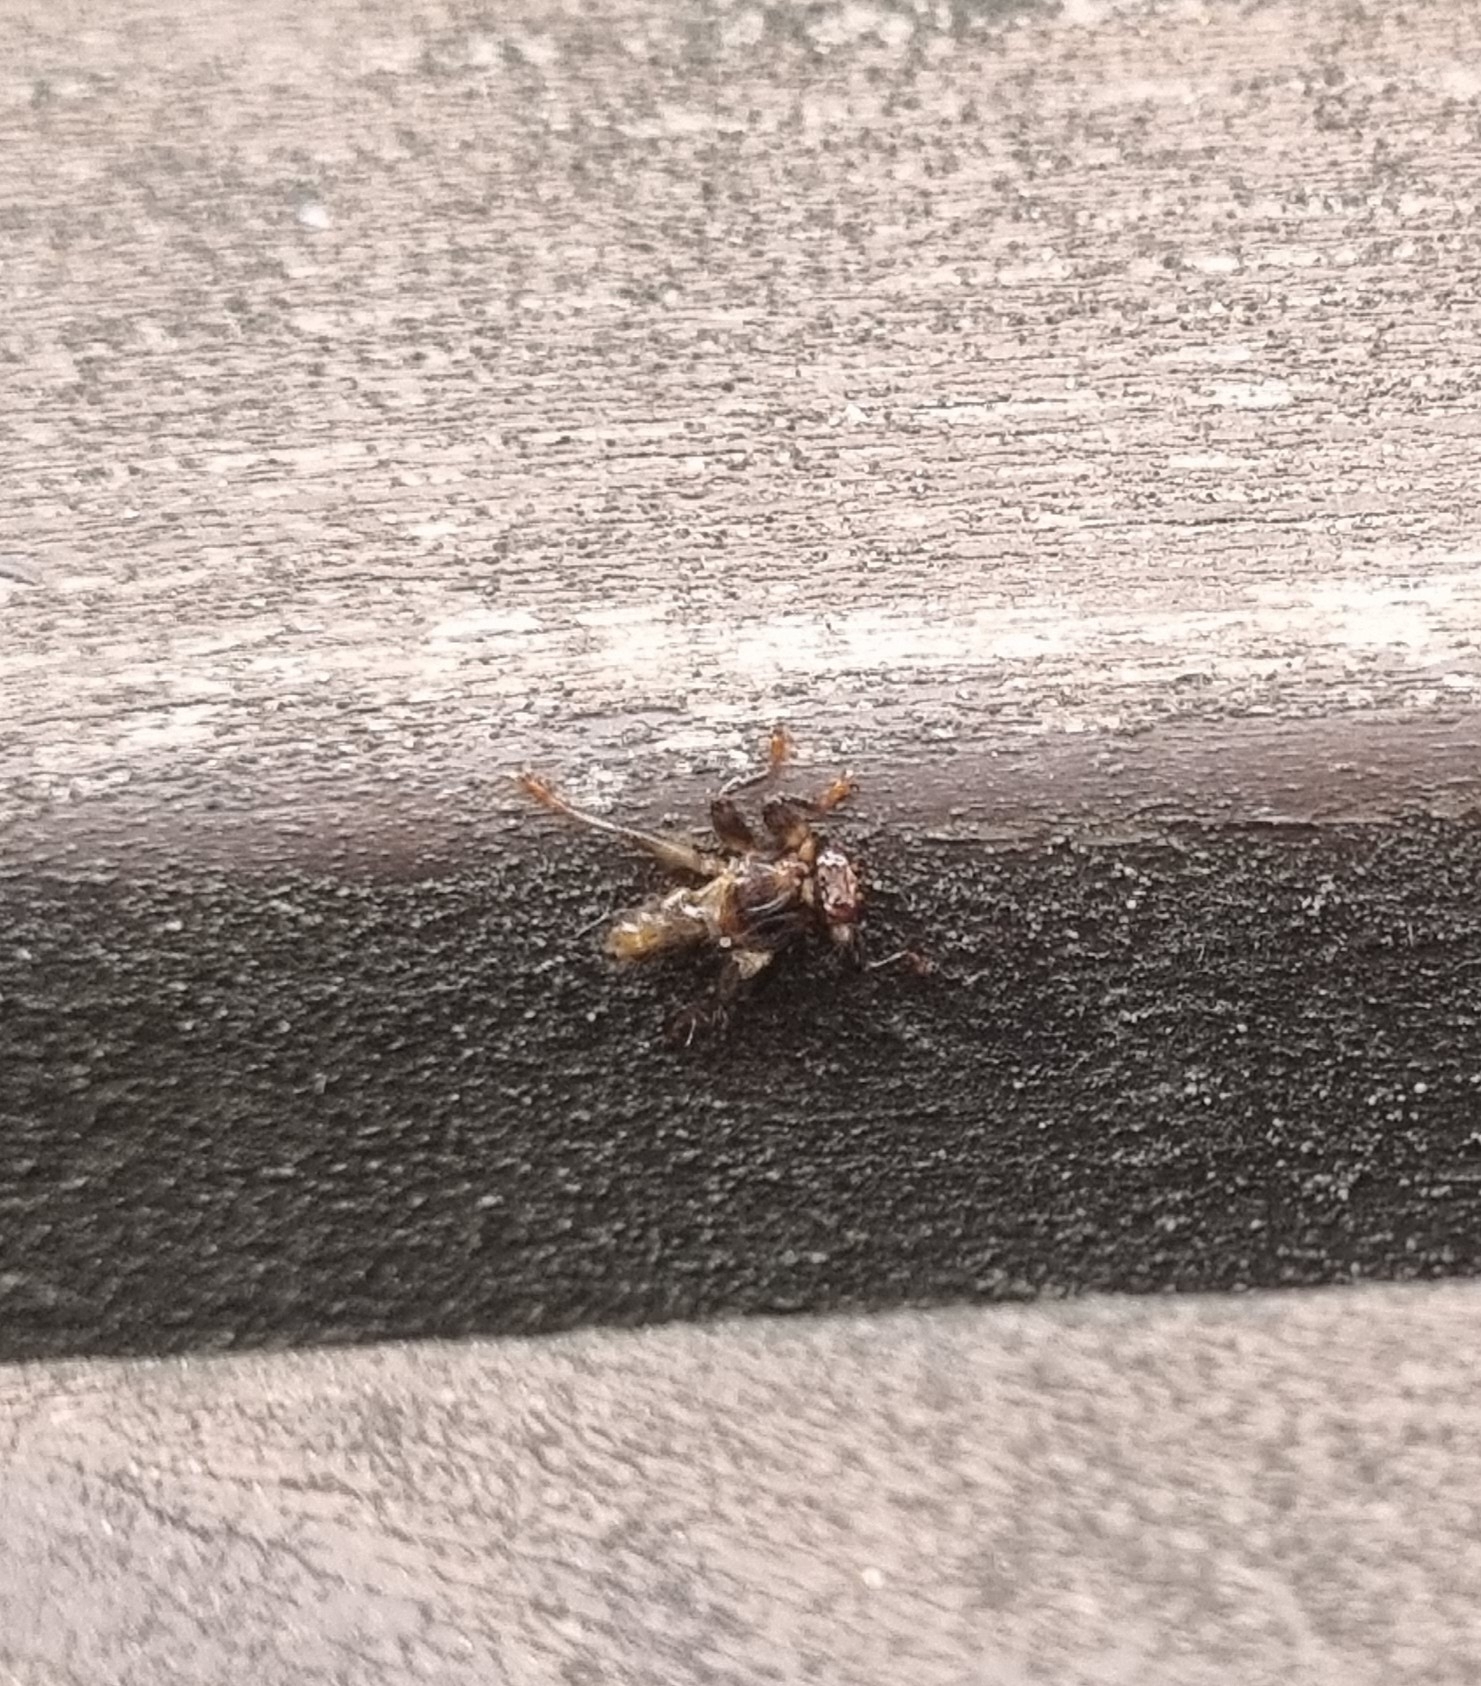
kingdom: Animalia
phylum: Arthropoda
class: Insecta
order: Diptera
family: Hippoboscidae
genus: Lipoptena
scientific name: Lipoptena cervi
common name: Deer ked
